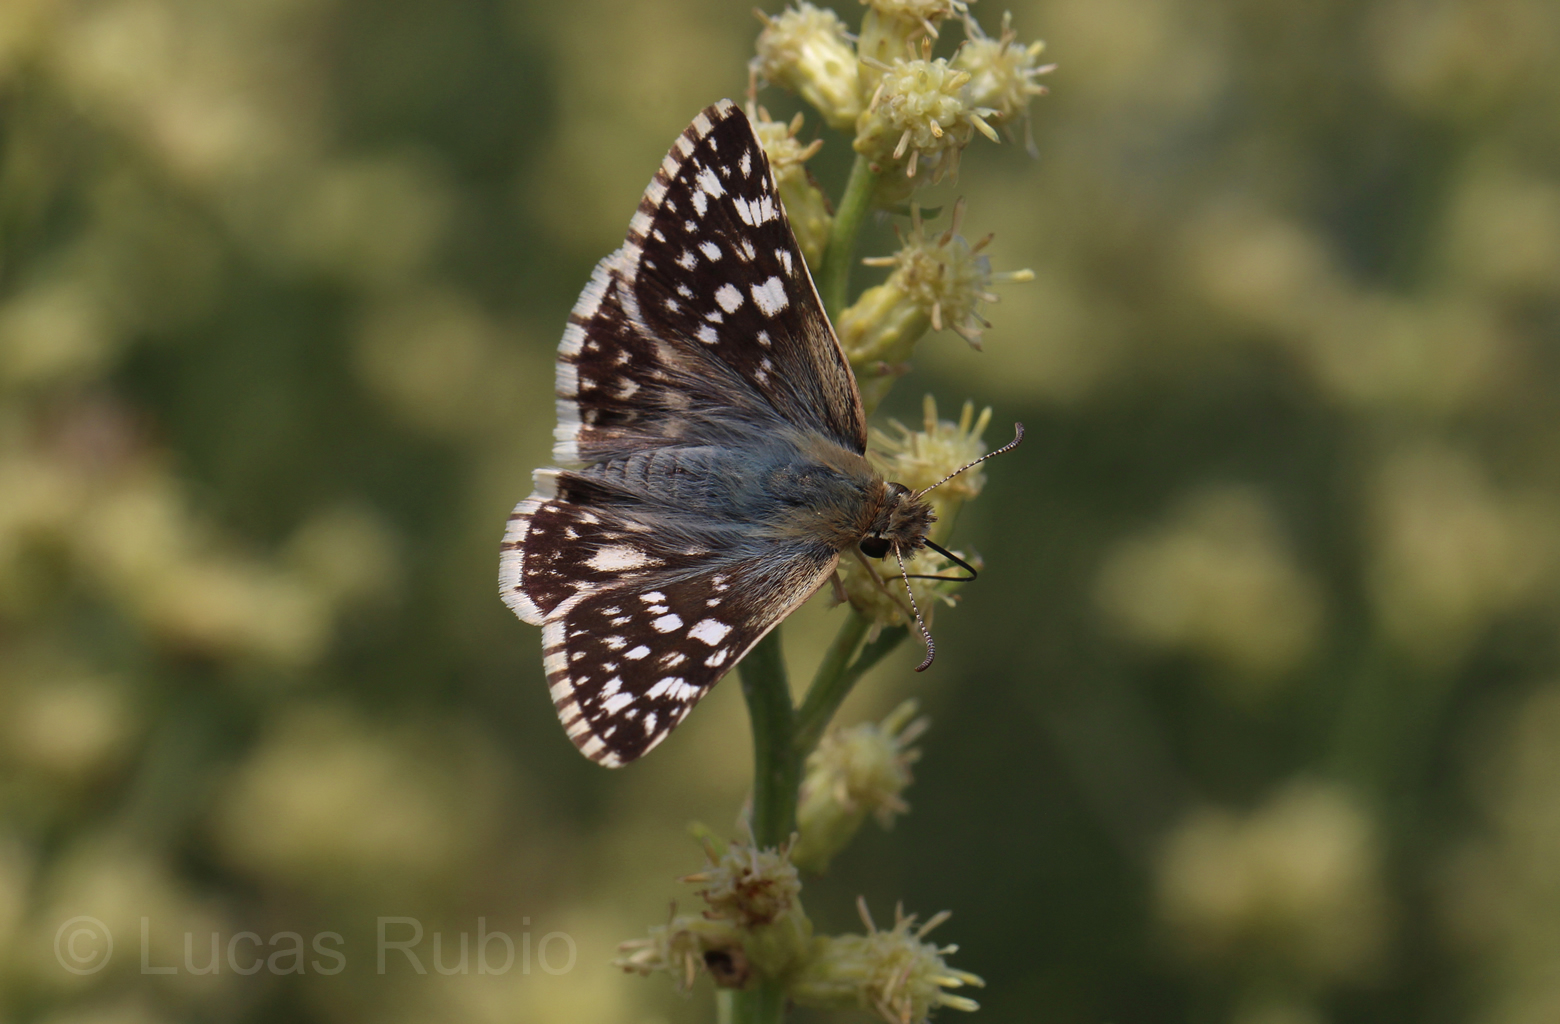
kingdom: Animalia
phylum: Arthropoda
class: Insecta
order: Lepidoptera
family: Hesperiidae
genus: Heliopetes
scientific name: Heliopetes americanus
